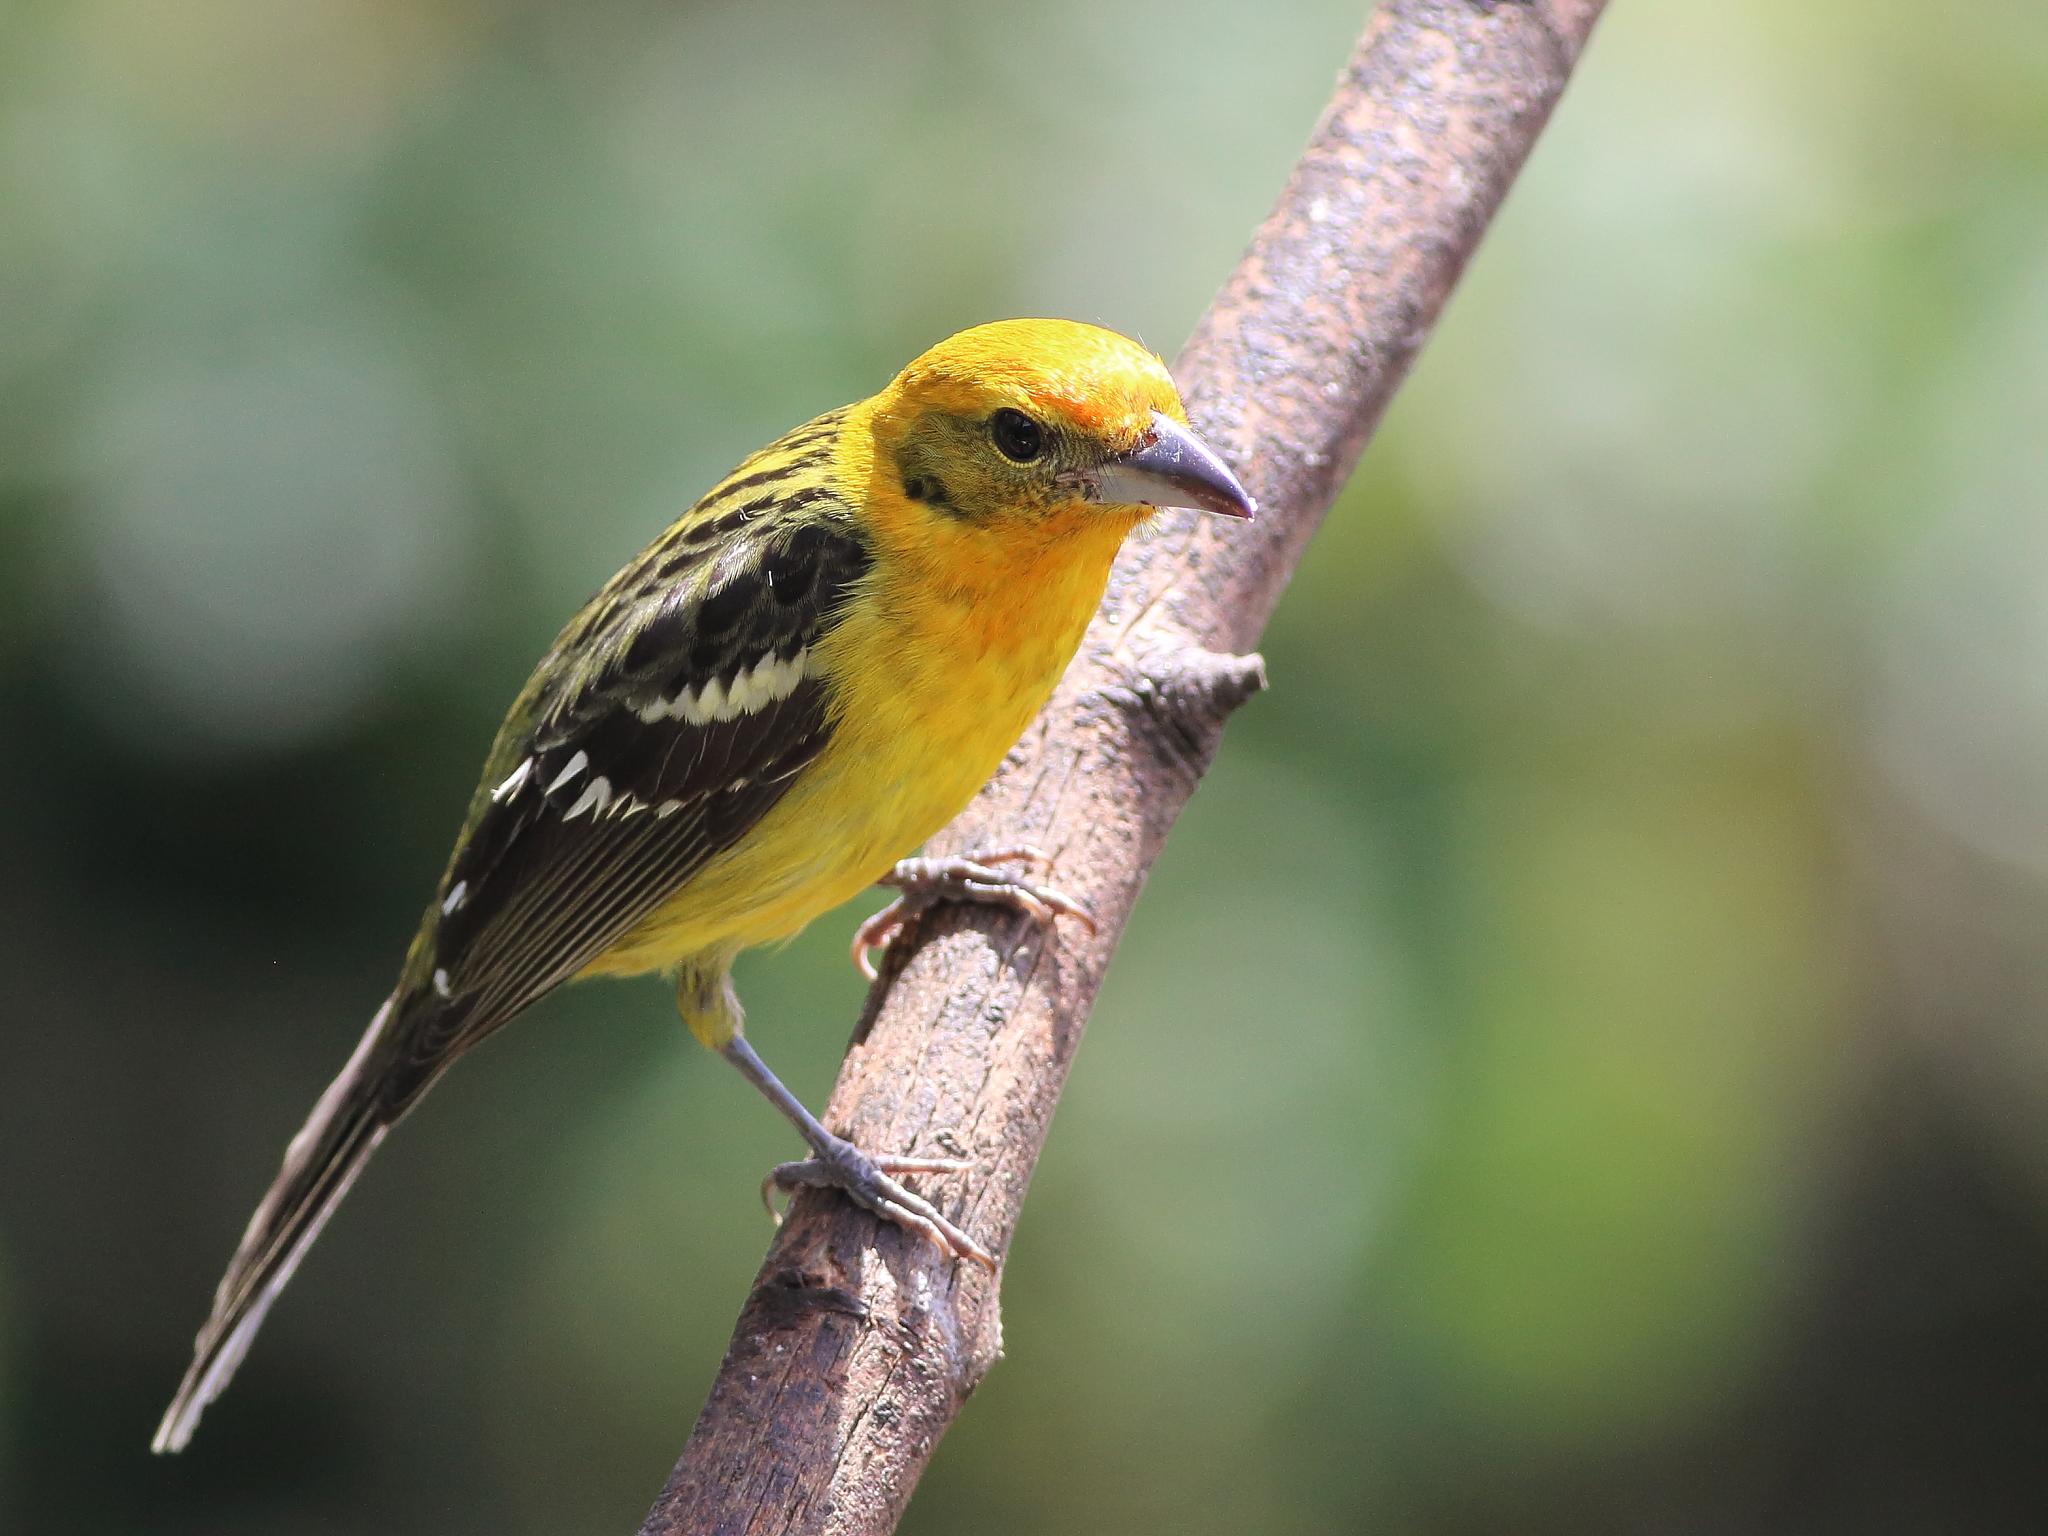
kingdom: Animalia
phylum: Chordata
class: Aves
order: Passeriformes
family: Cardinalidae
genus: Piranga
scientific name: Piranga bidentata
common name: Flame-colored tanager
